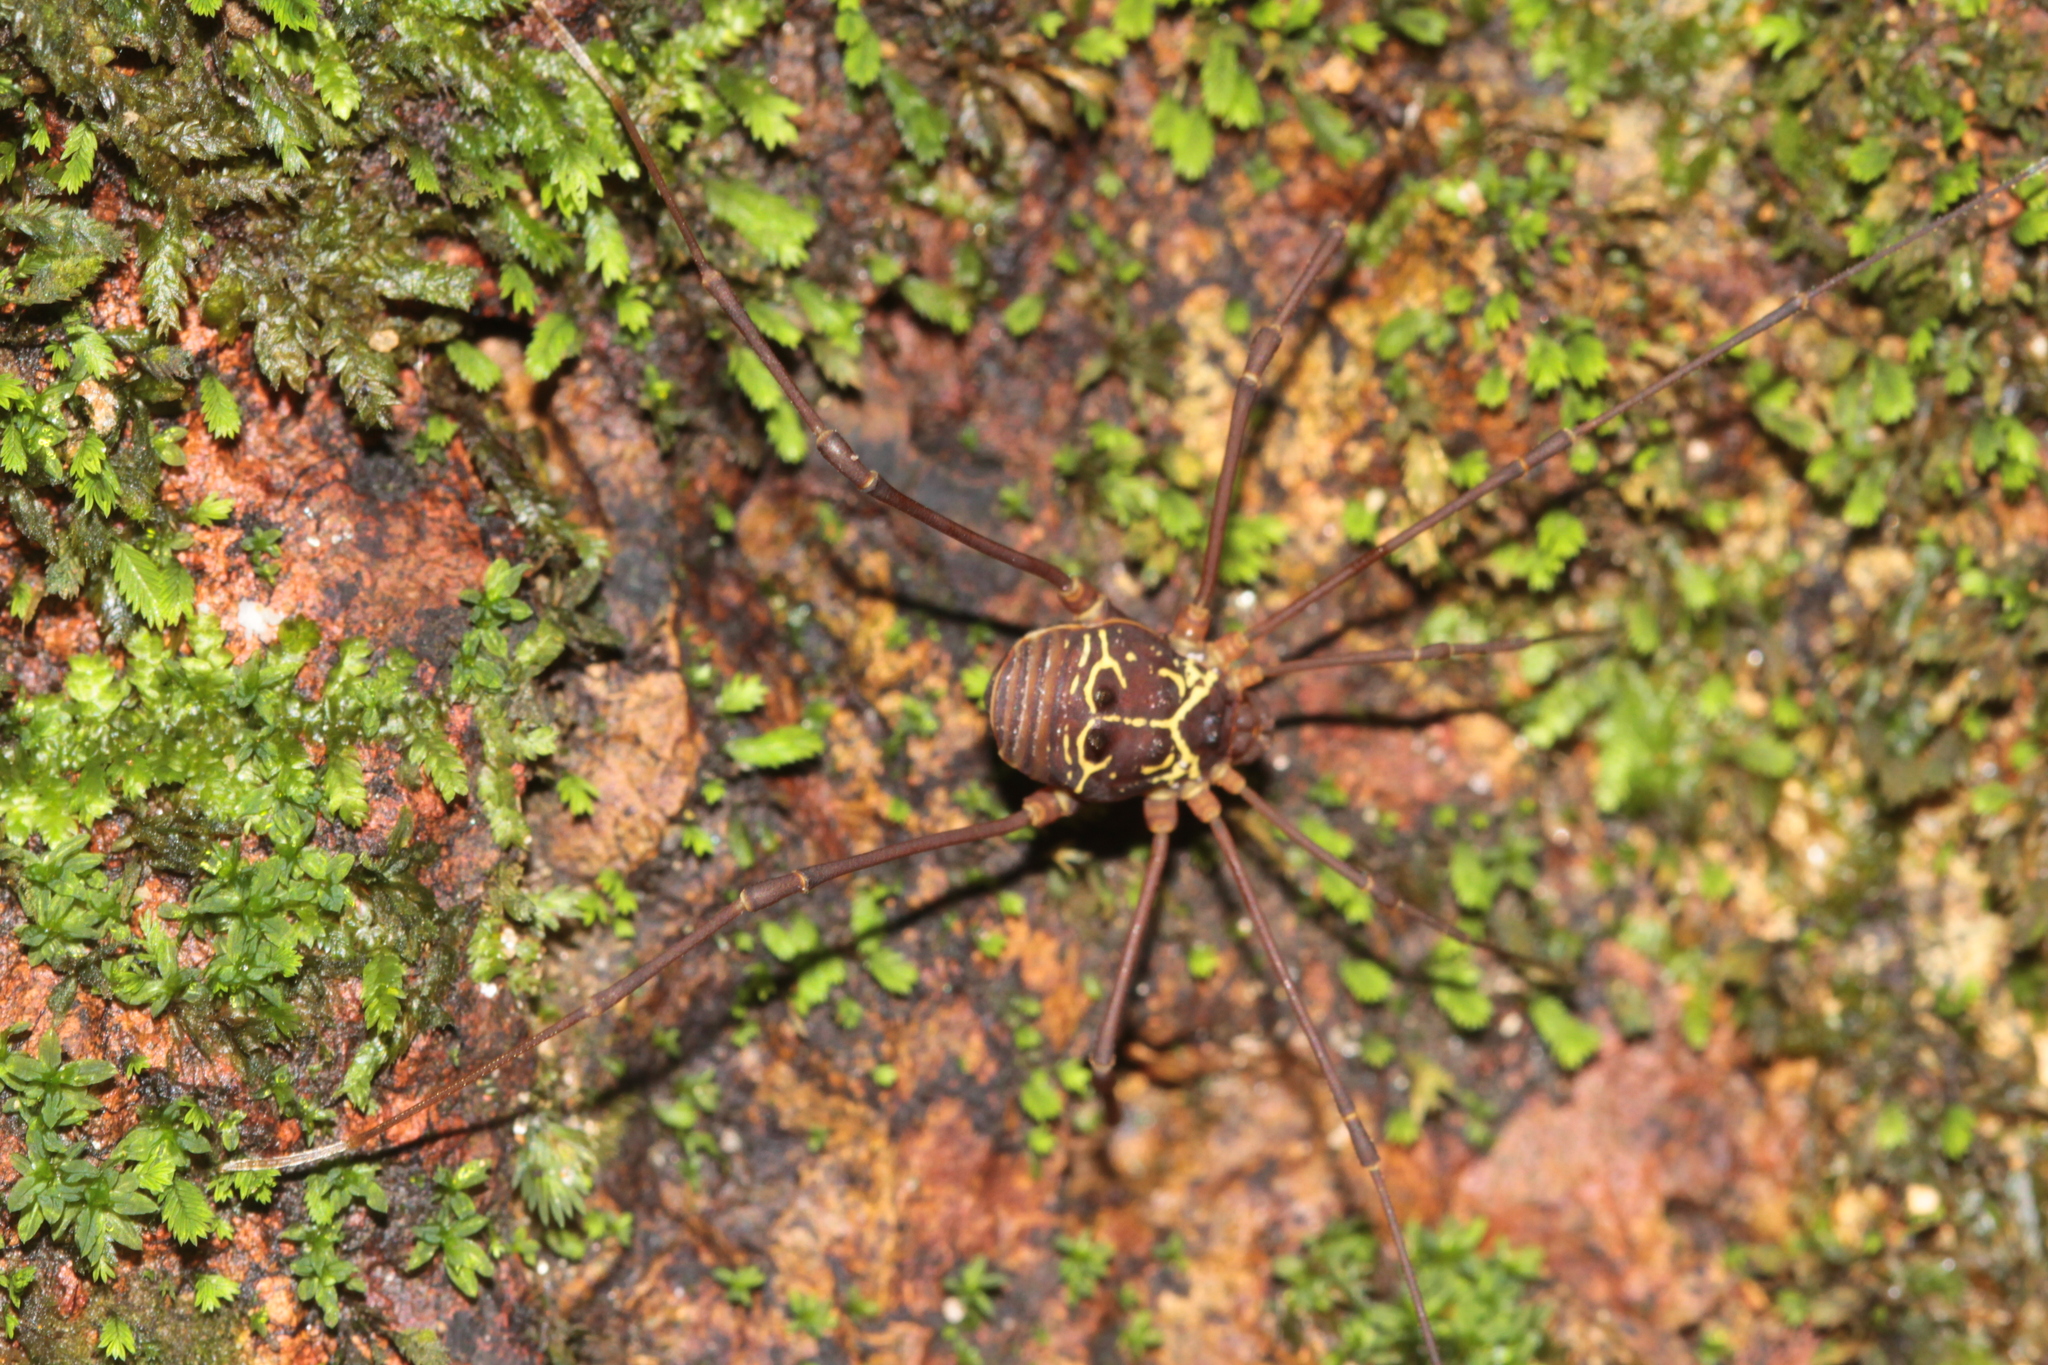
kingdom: Animalia
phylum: Arthropoda
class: Arachnida
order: Opiliones
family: Cosmetidae
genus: Paecilaema
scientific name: Paecilaema curvipes
